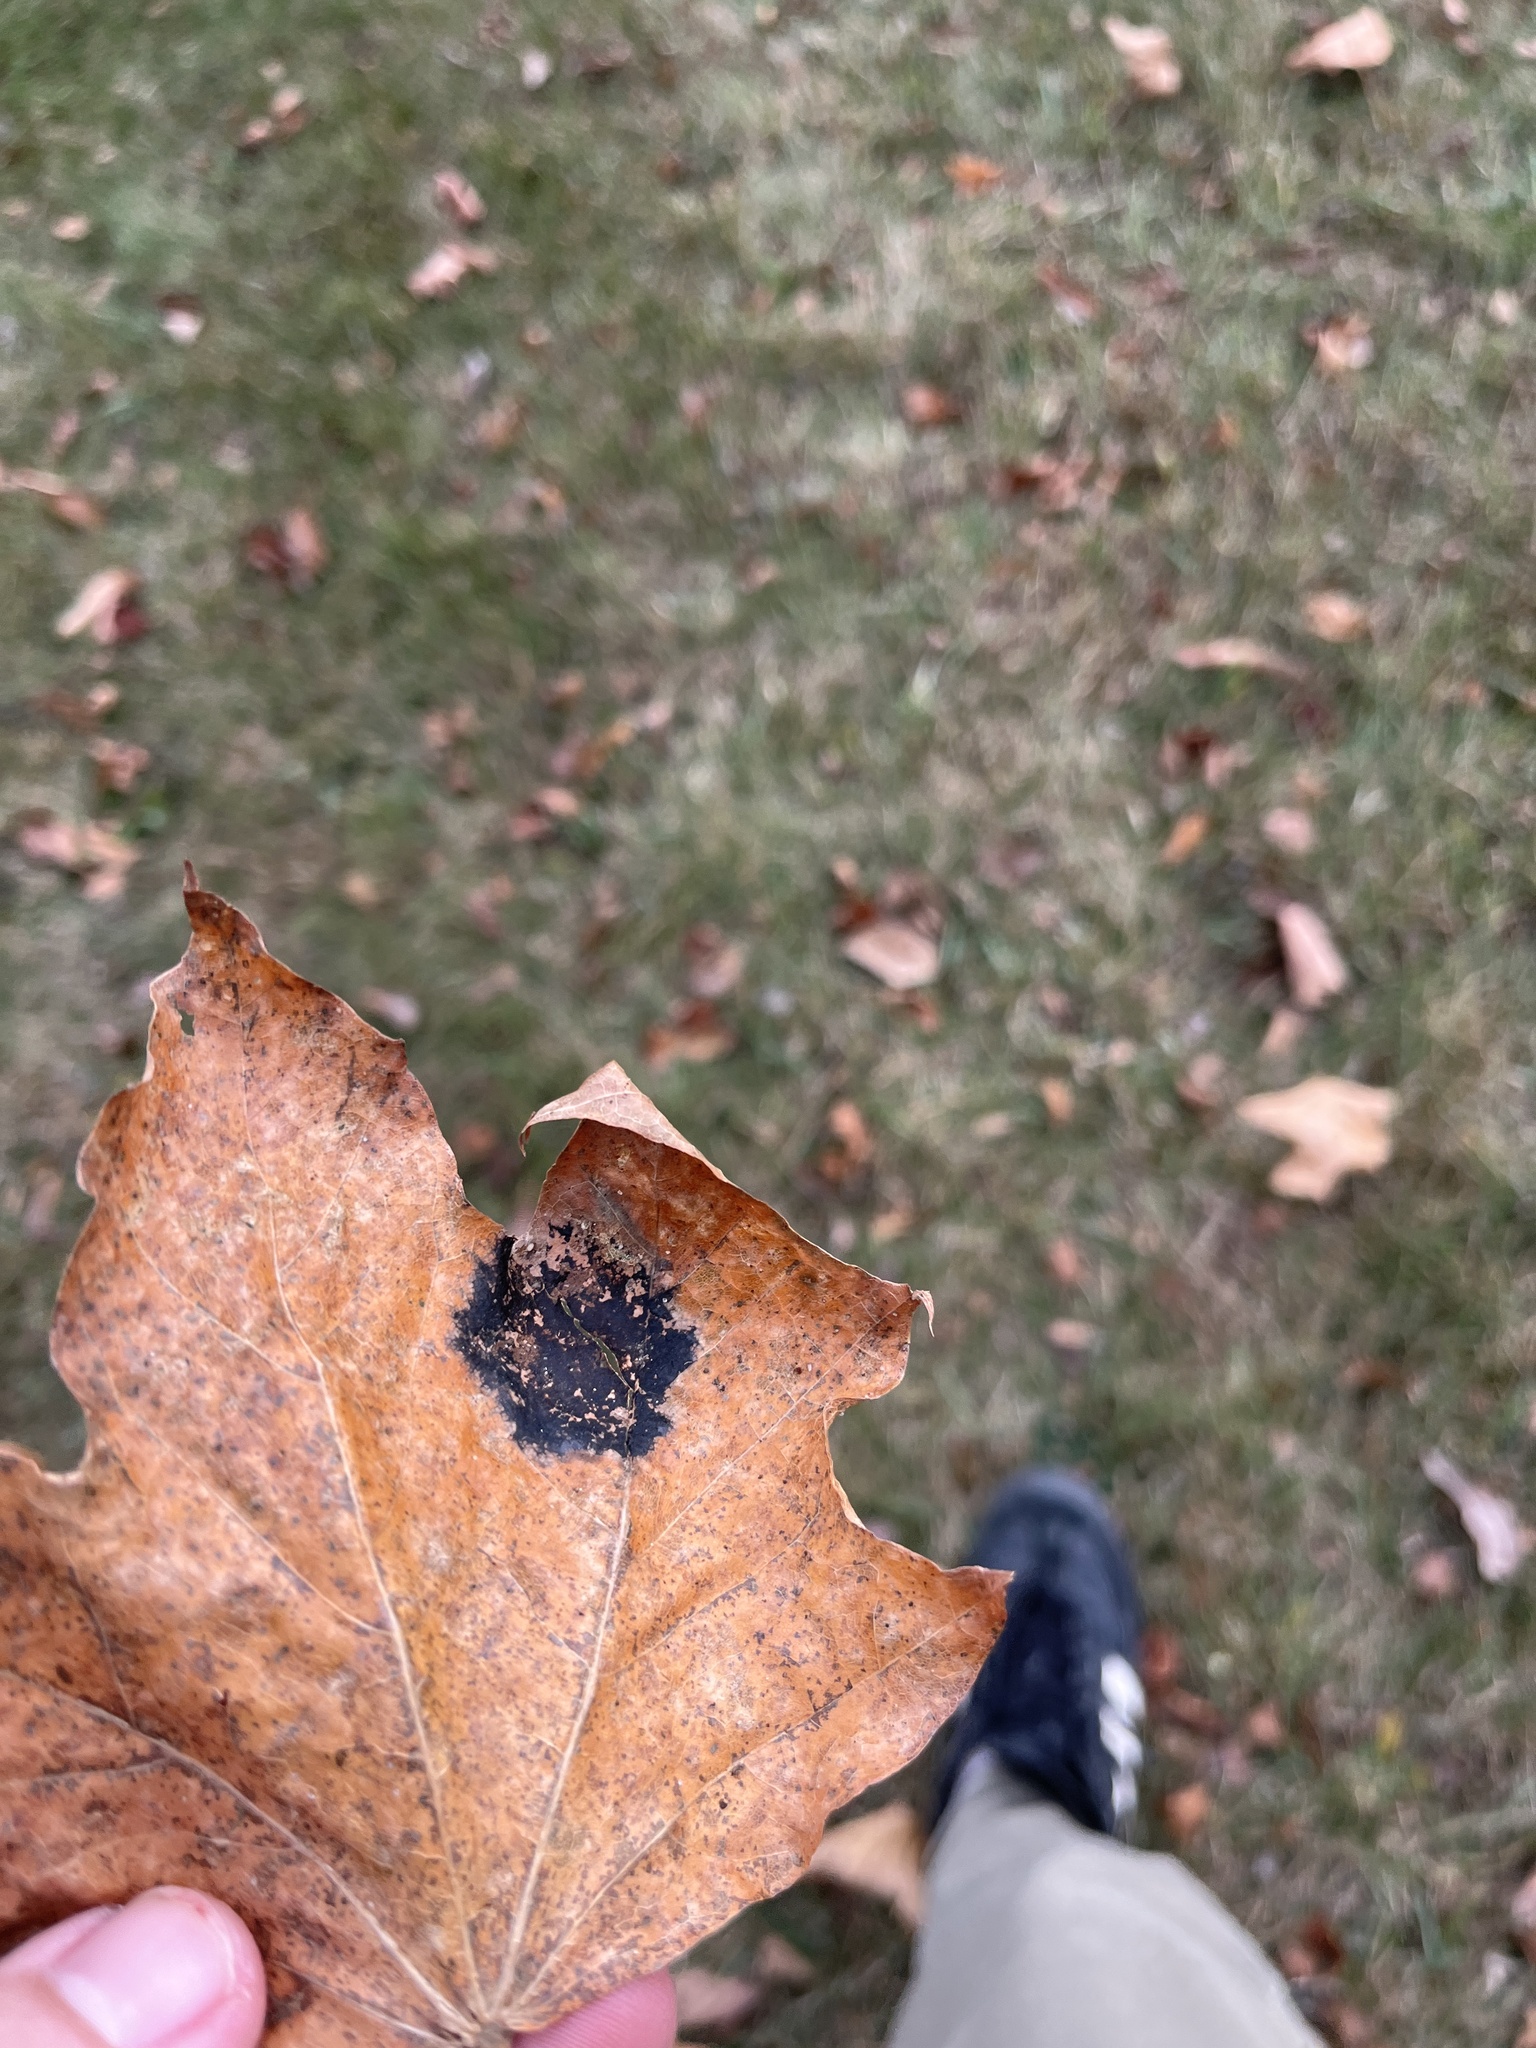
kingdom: Fungi
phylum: Ascomycota
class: Leotiomycetes
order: Rhytismatales
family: Rhytismataceae
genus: Rhytisma
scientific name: Rhytisma acerinum
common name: European tar spot
